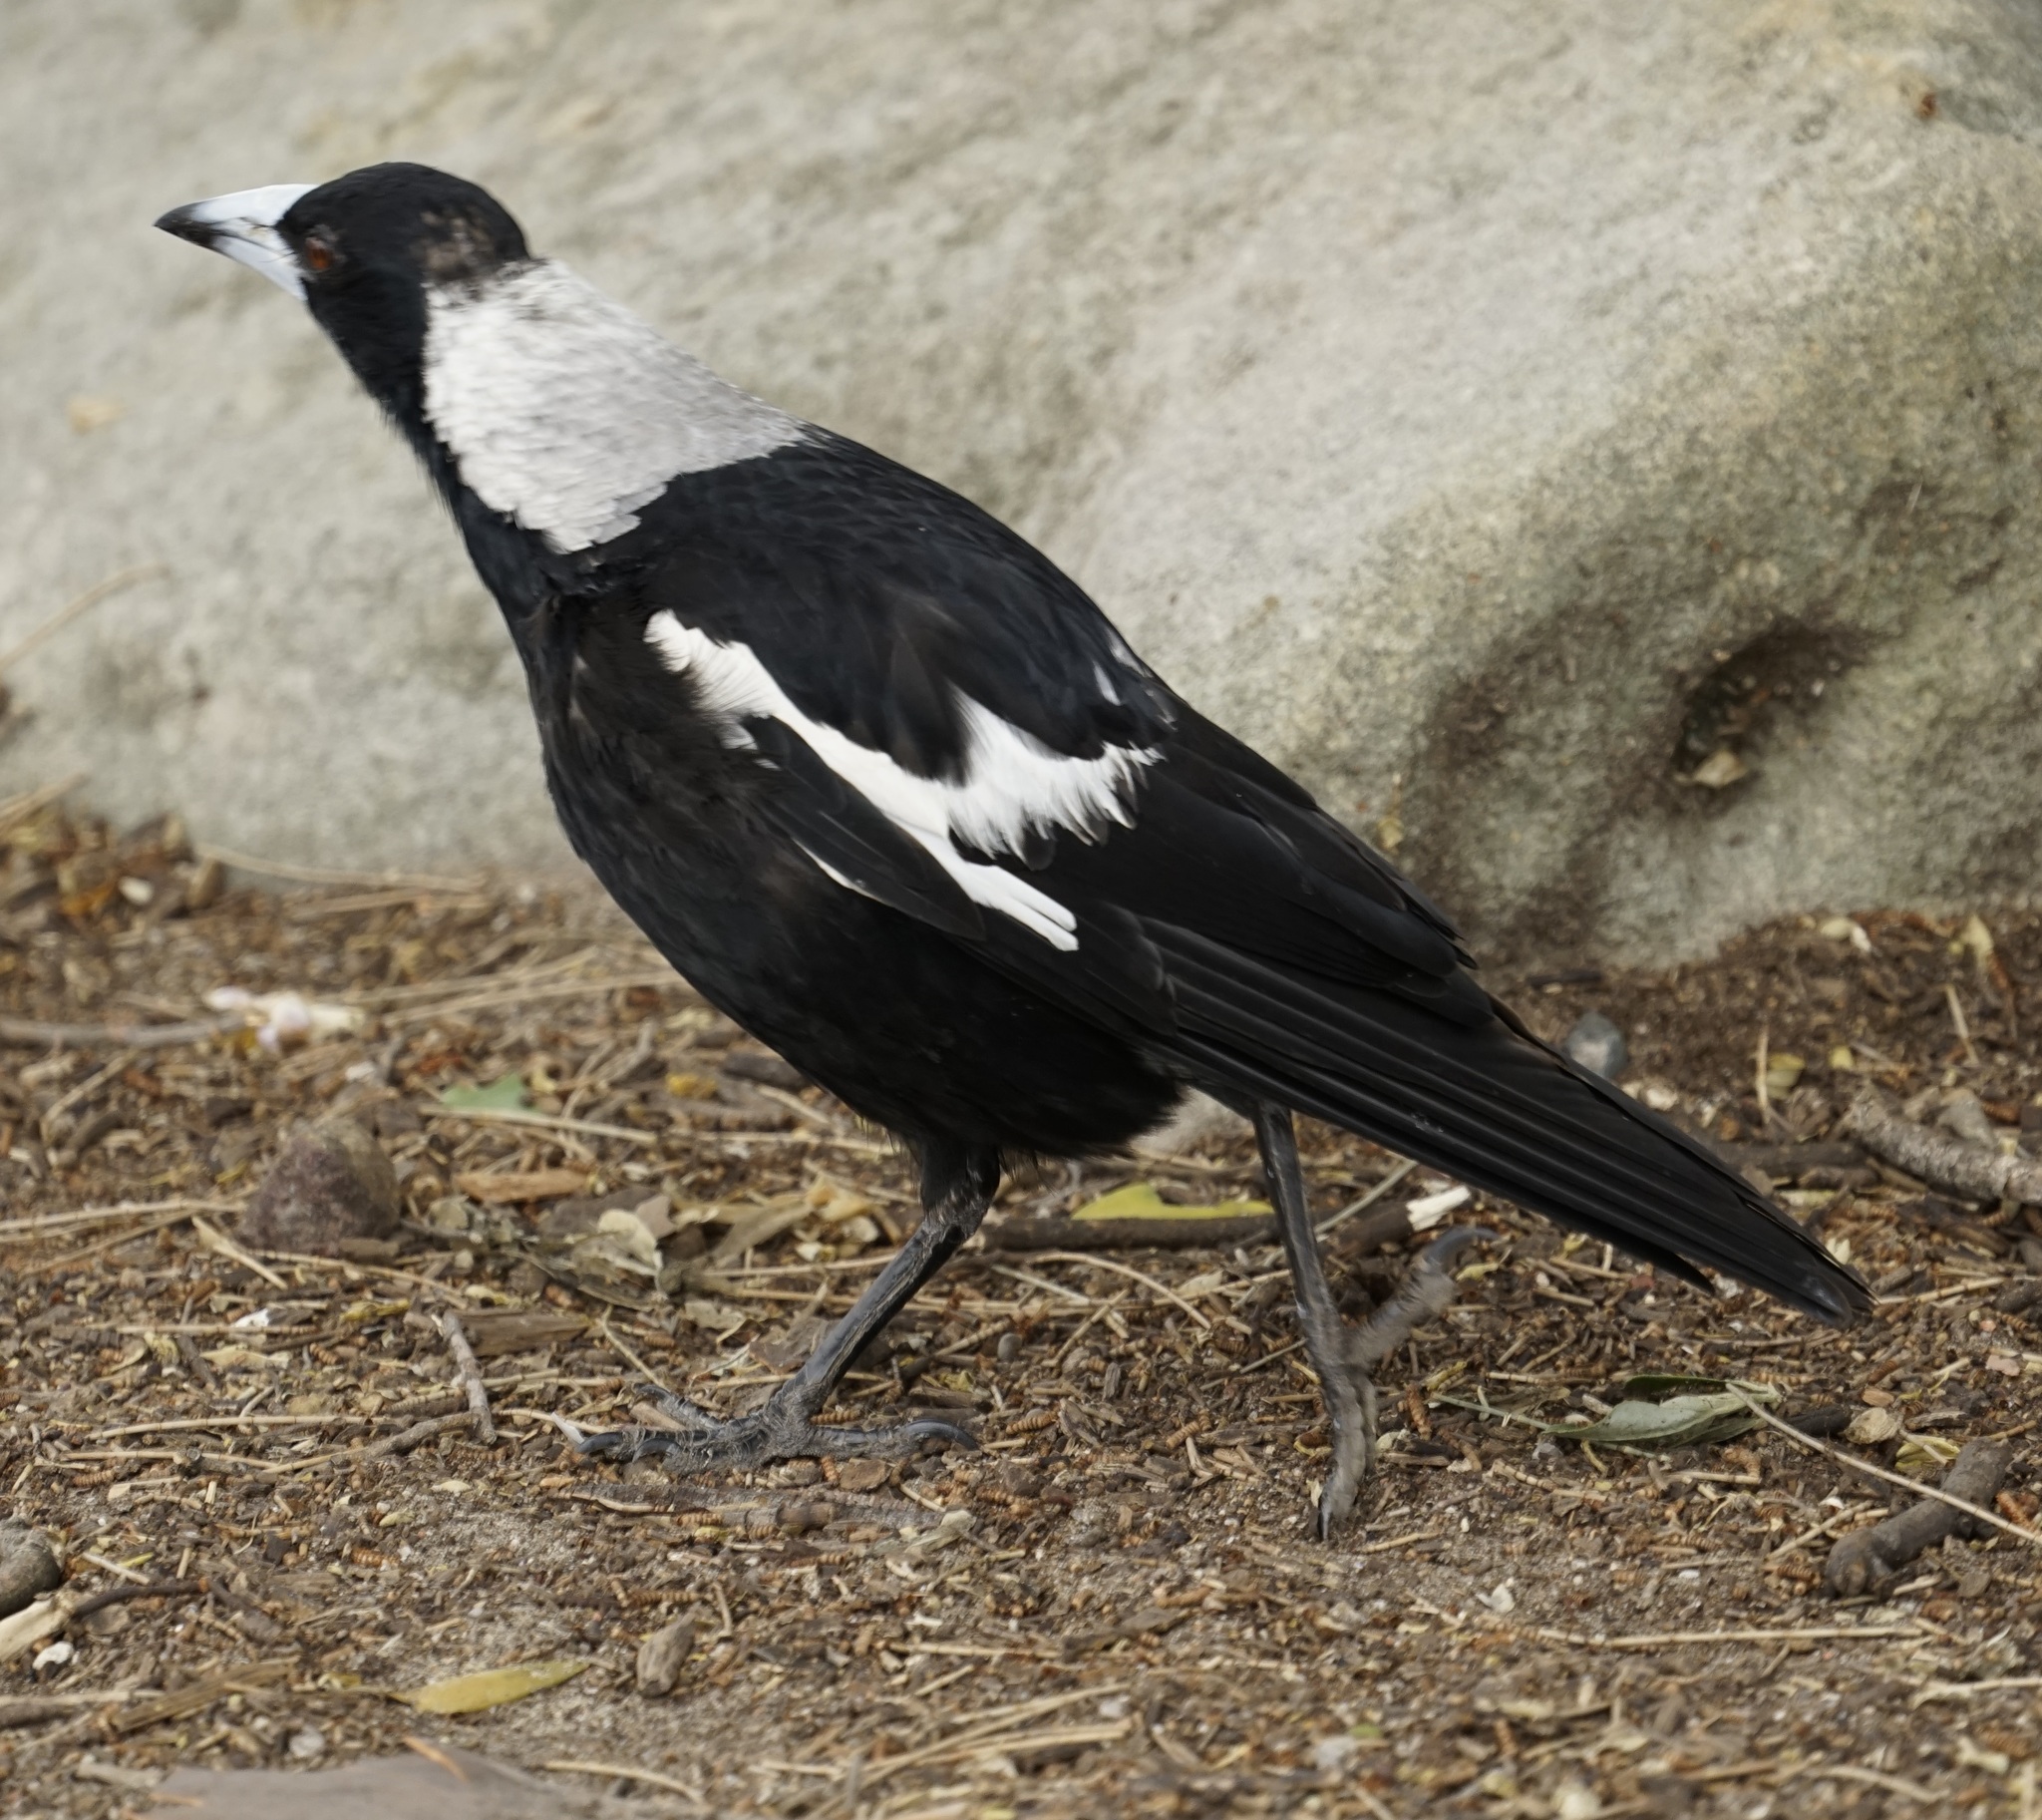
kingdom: Animalia
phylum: Chordata
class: Aves
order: Passeriformes
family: Cracticidae
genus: Gymnorhina
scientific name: Gymnorhina tibicen
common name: Australian magpie
